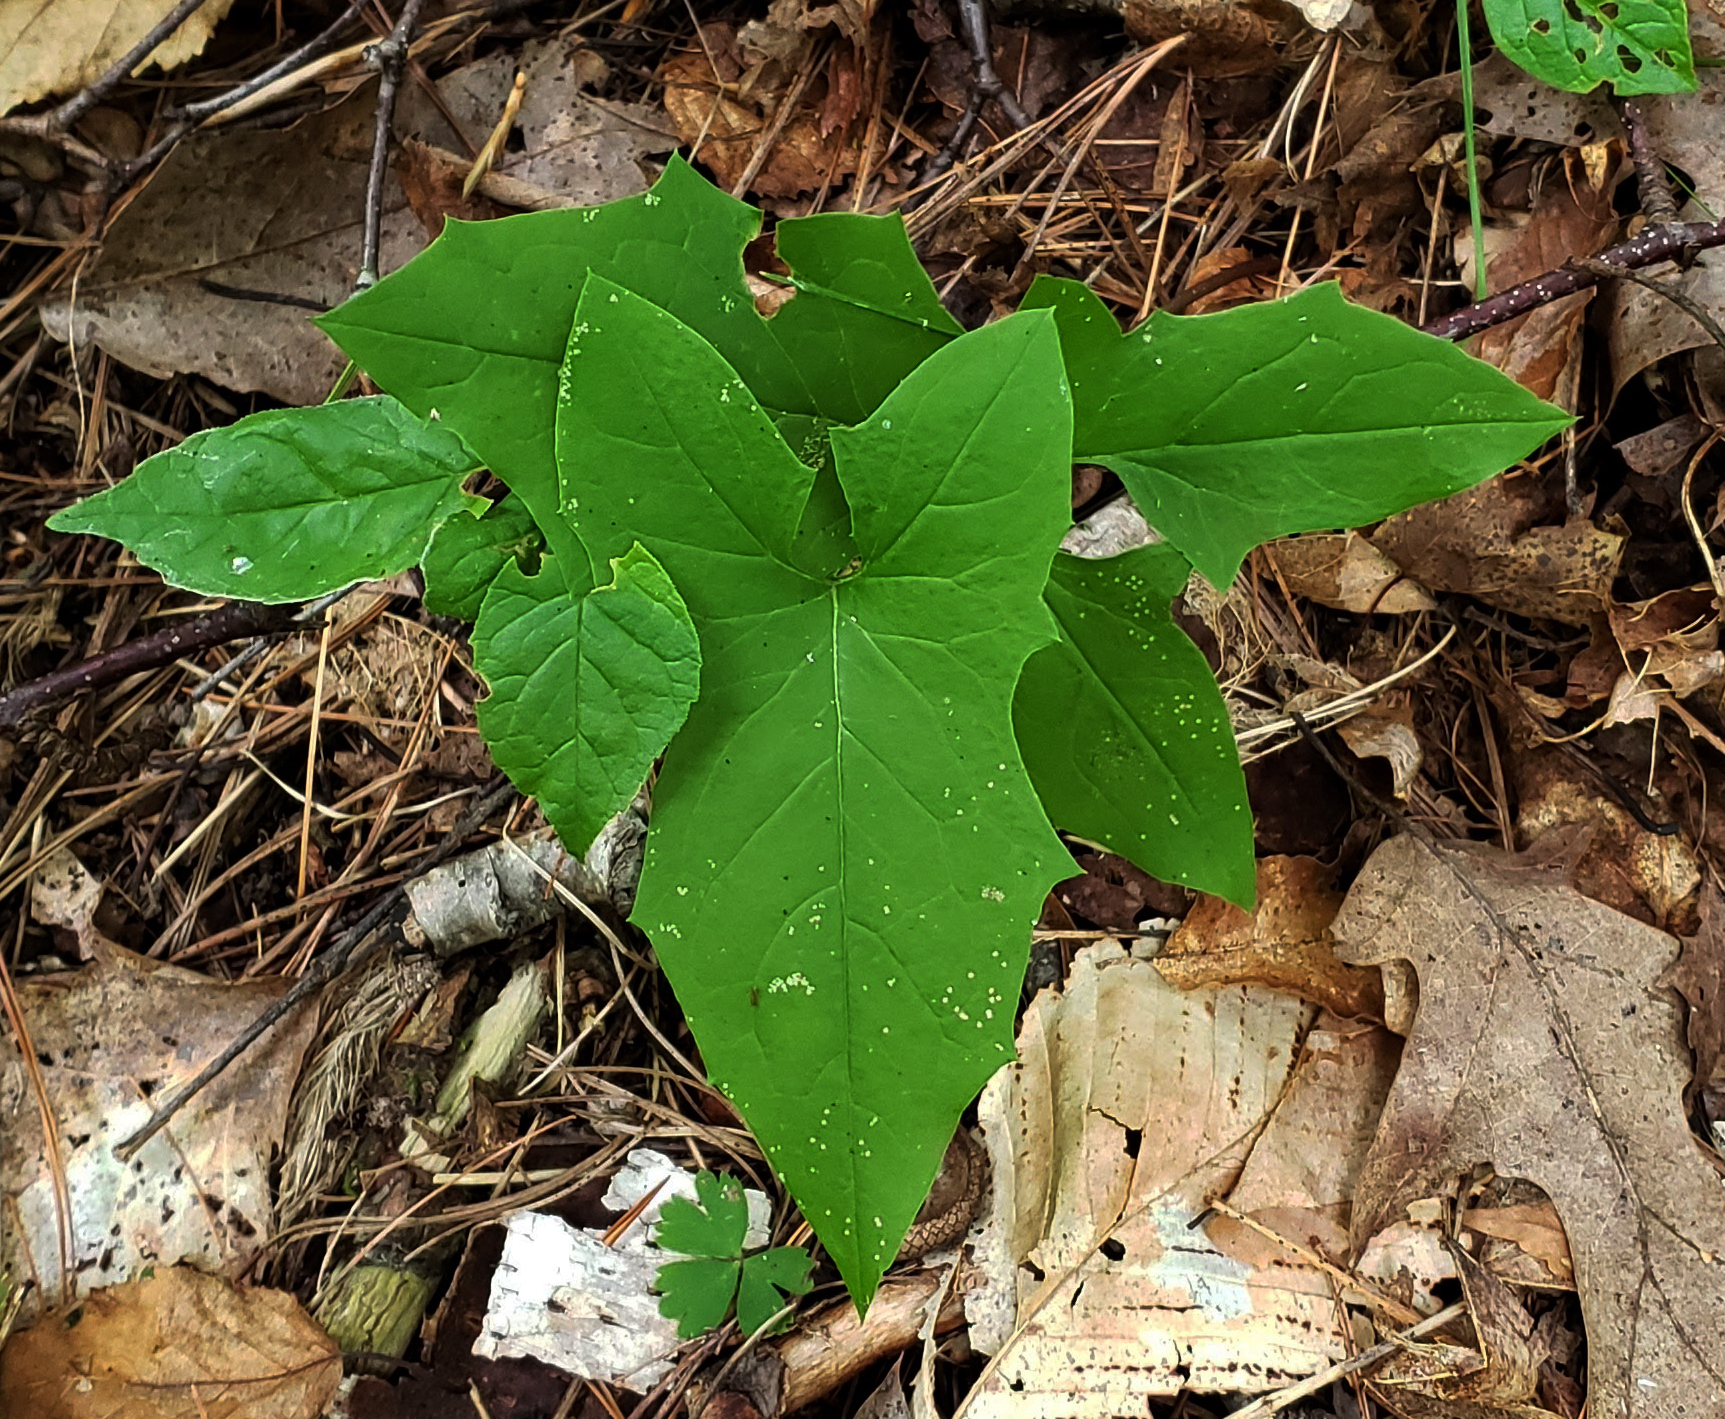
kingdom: Plantae
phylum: Tracheophyta
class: Magnoliopsida
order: Asterales
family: Asteraceae
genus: Nabalus
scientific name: Nabalus albus
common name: White rattlesnakeroot
